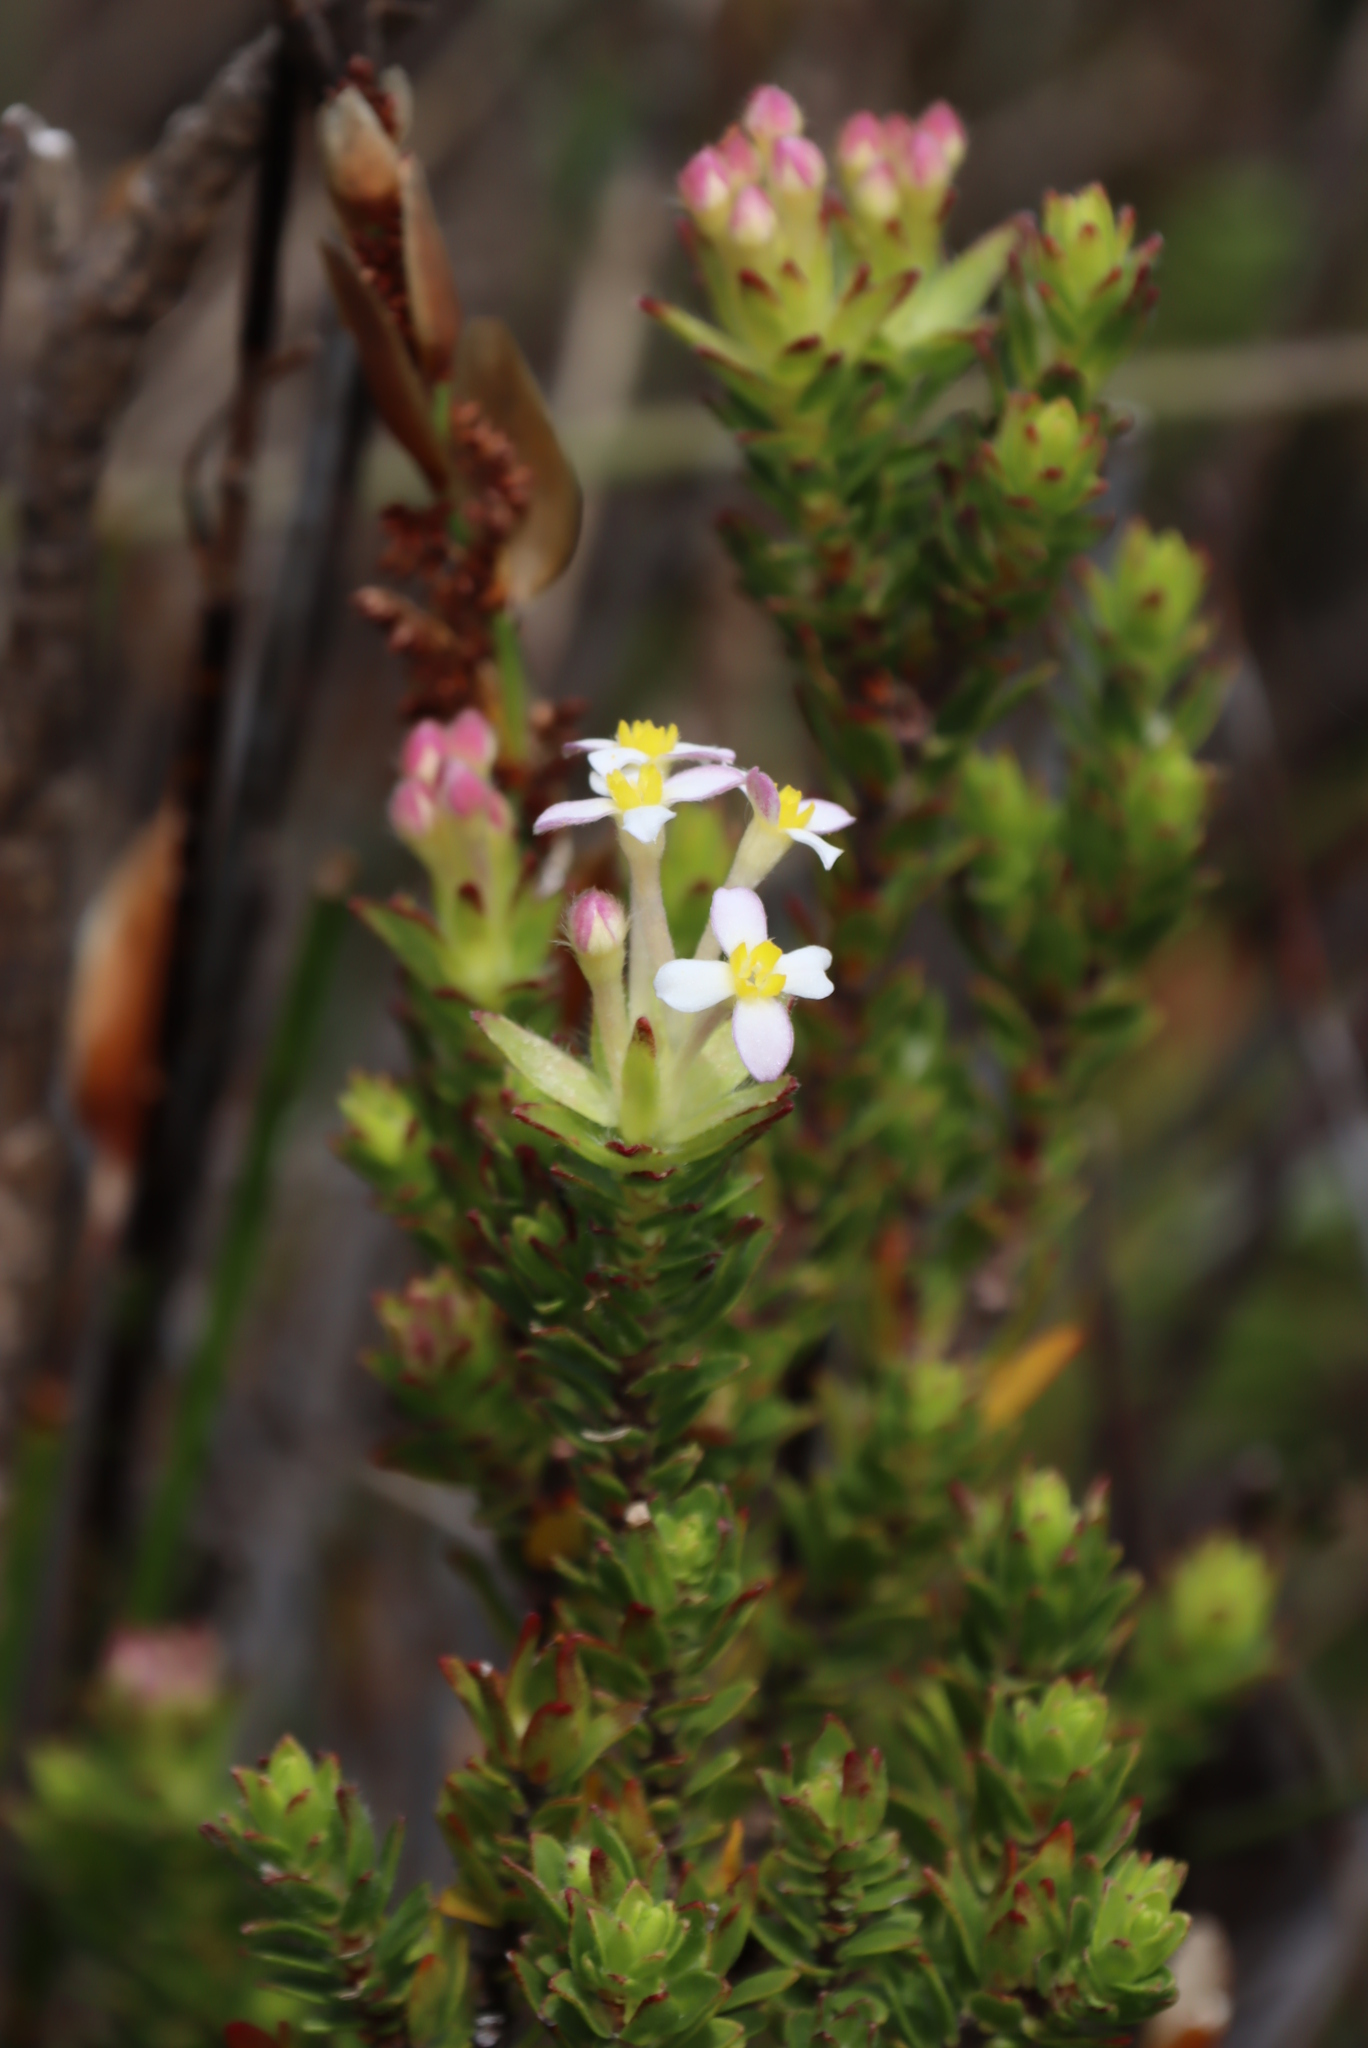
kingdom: Plantae
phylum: Tracheophyta
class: Magnoliopsida
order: Malvales
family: Thymelaeaceae
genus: Gnidia
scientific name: Gnidia tomentosa
